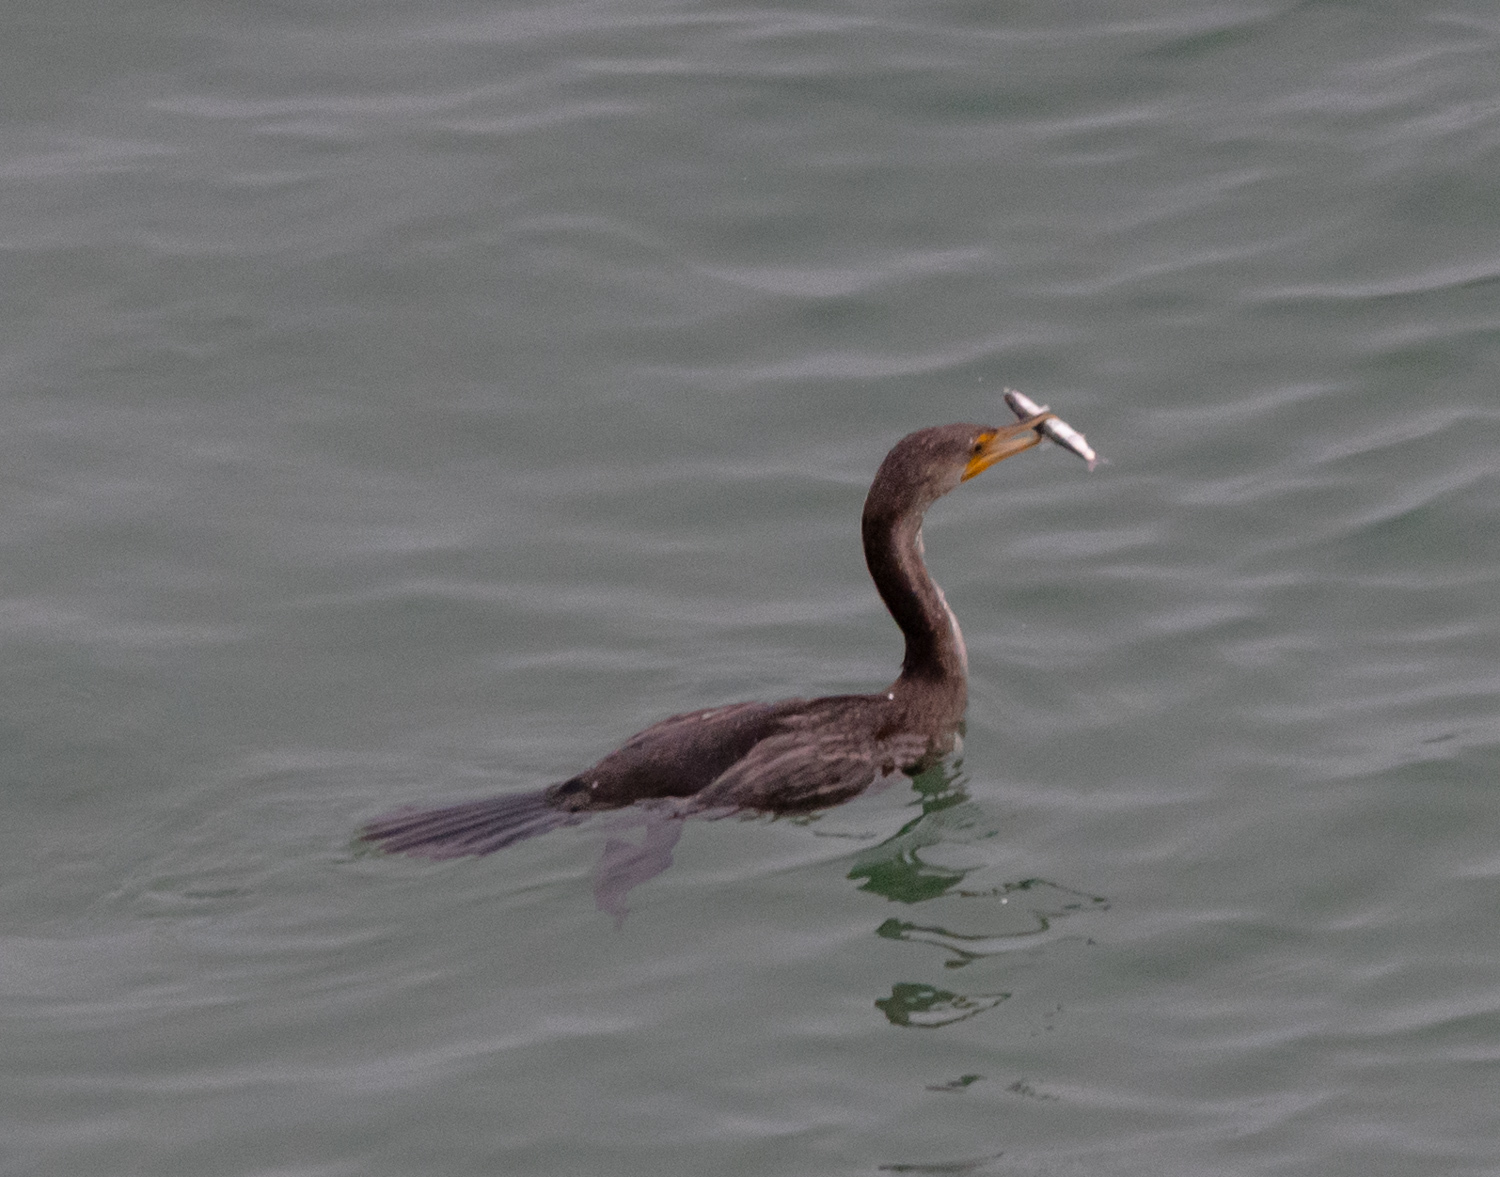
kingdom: Animalia
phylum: Chordata
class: Aves
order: Suliformes
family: Phalacrocoracidae
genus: Phalacrocorax
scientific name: Phalacrocorax auritus
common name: Double-crested cormorant
